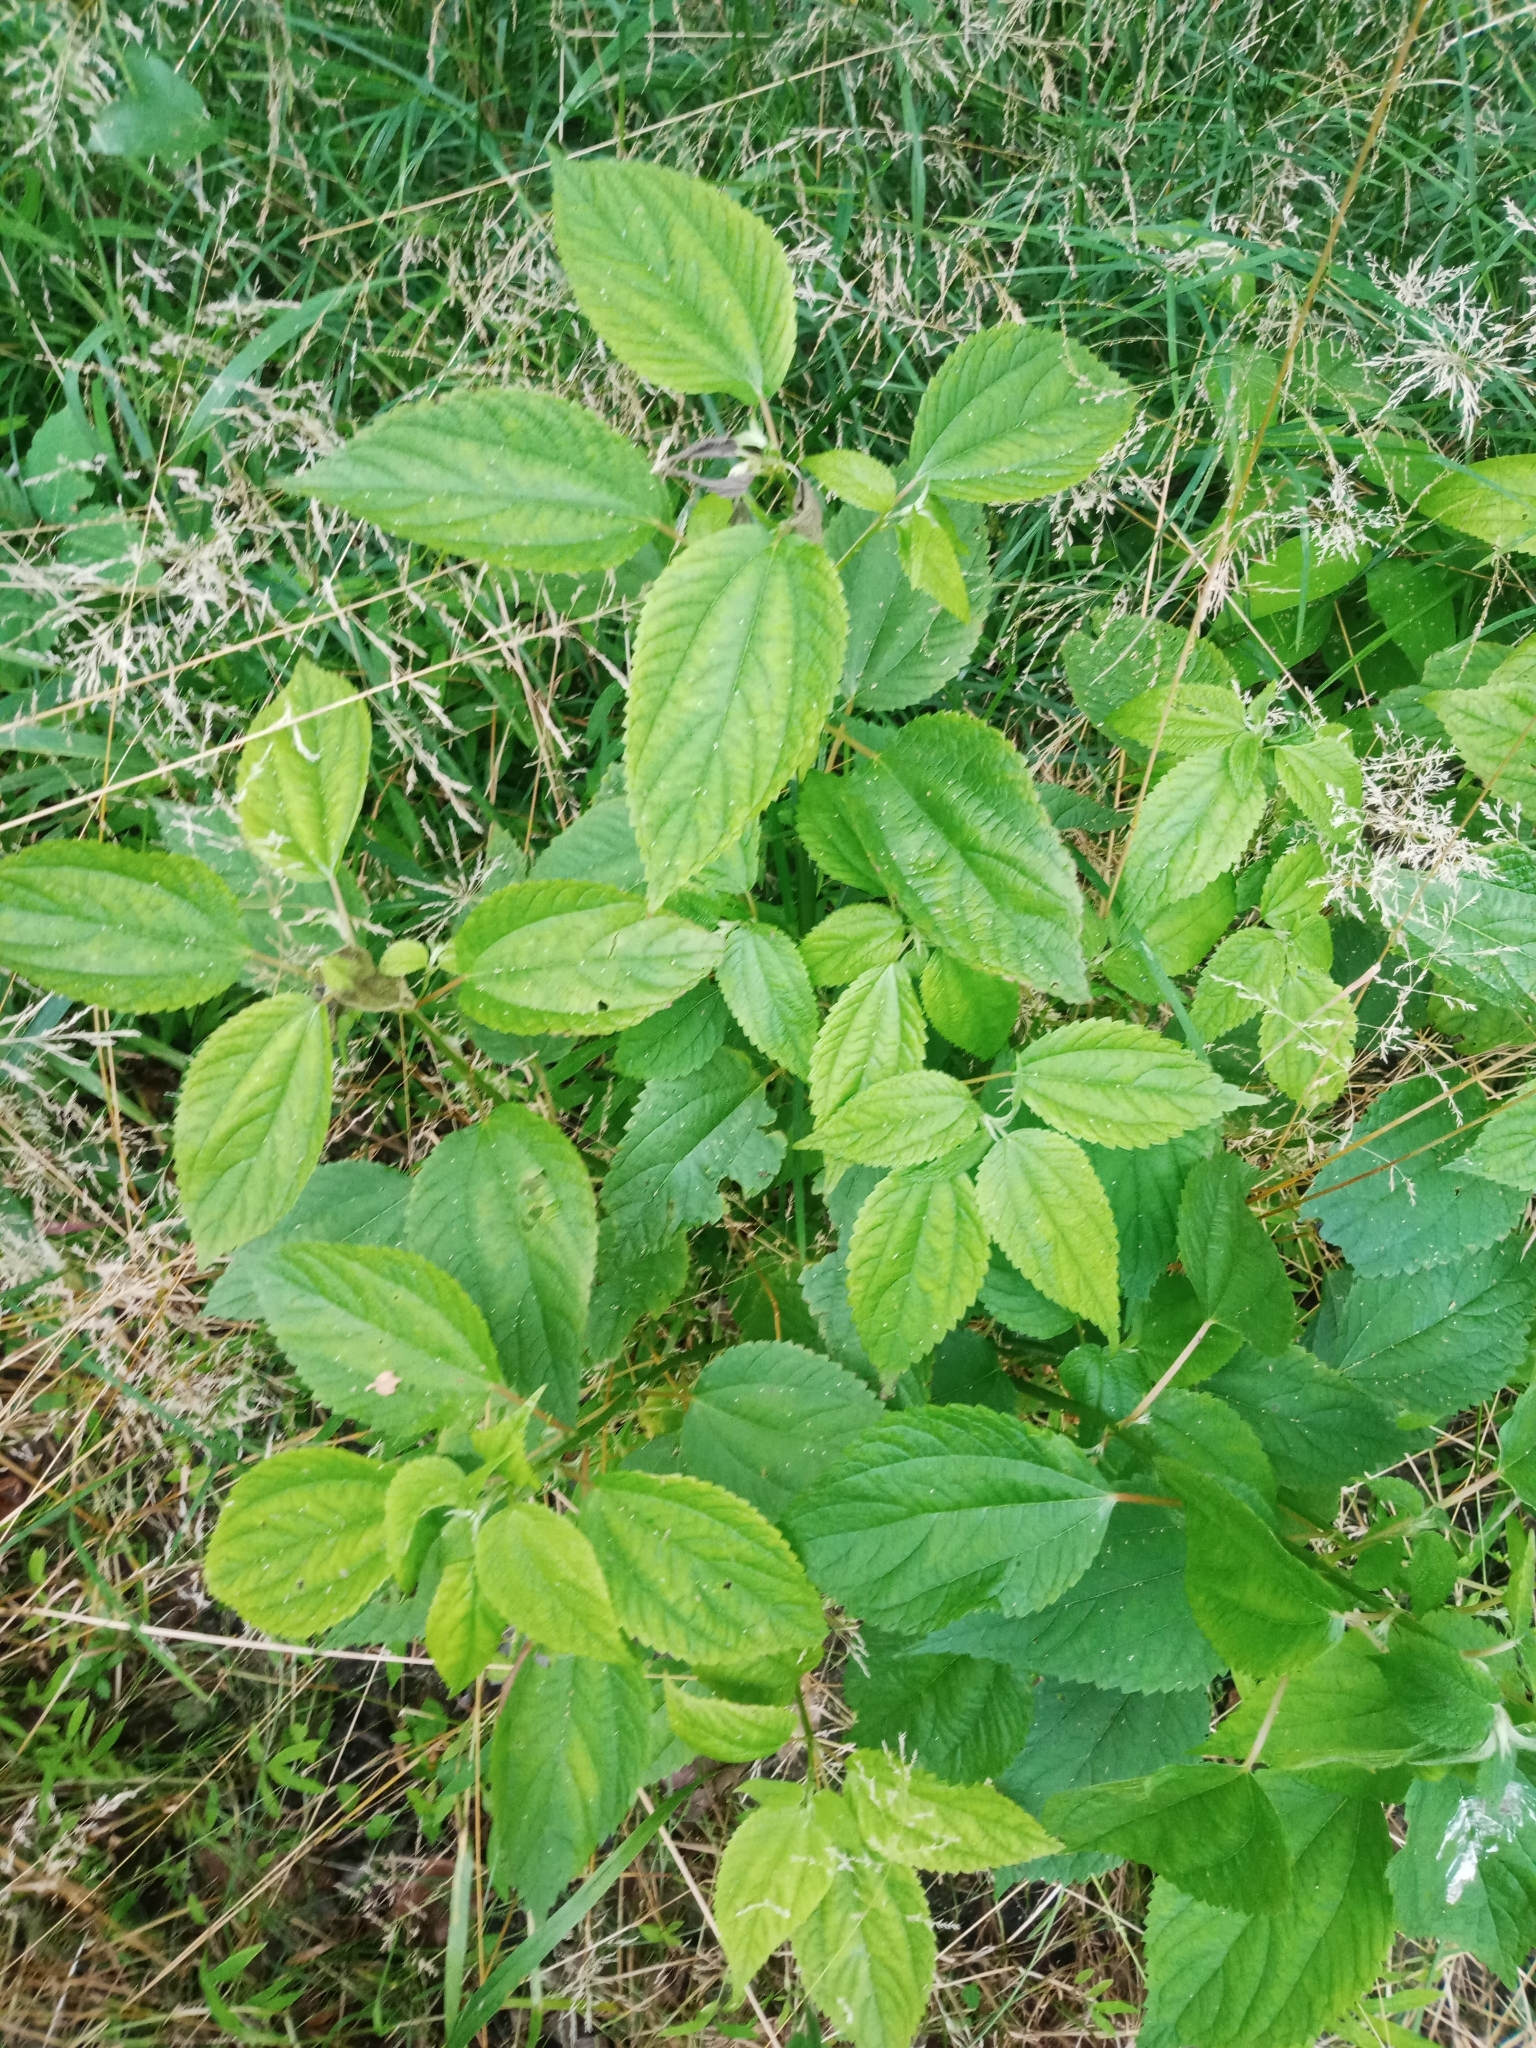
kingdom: Plantae
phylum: Tracheophyta
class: Magnoliopsida
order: Rosales
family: Urticaceae
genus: Boehmeria
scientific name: Boehmeria cylindrica
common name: Bog-hemp
